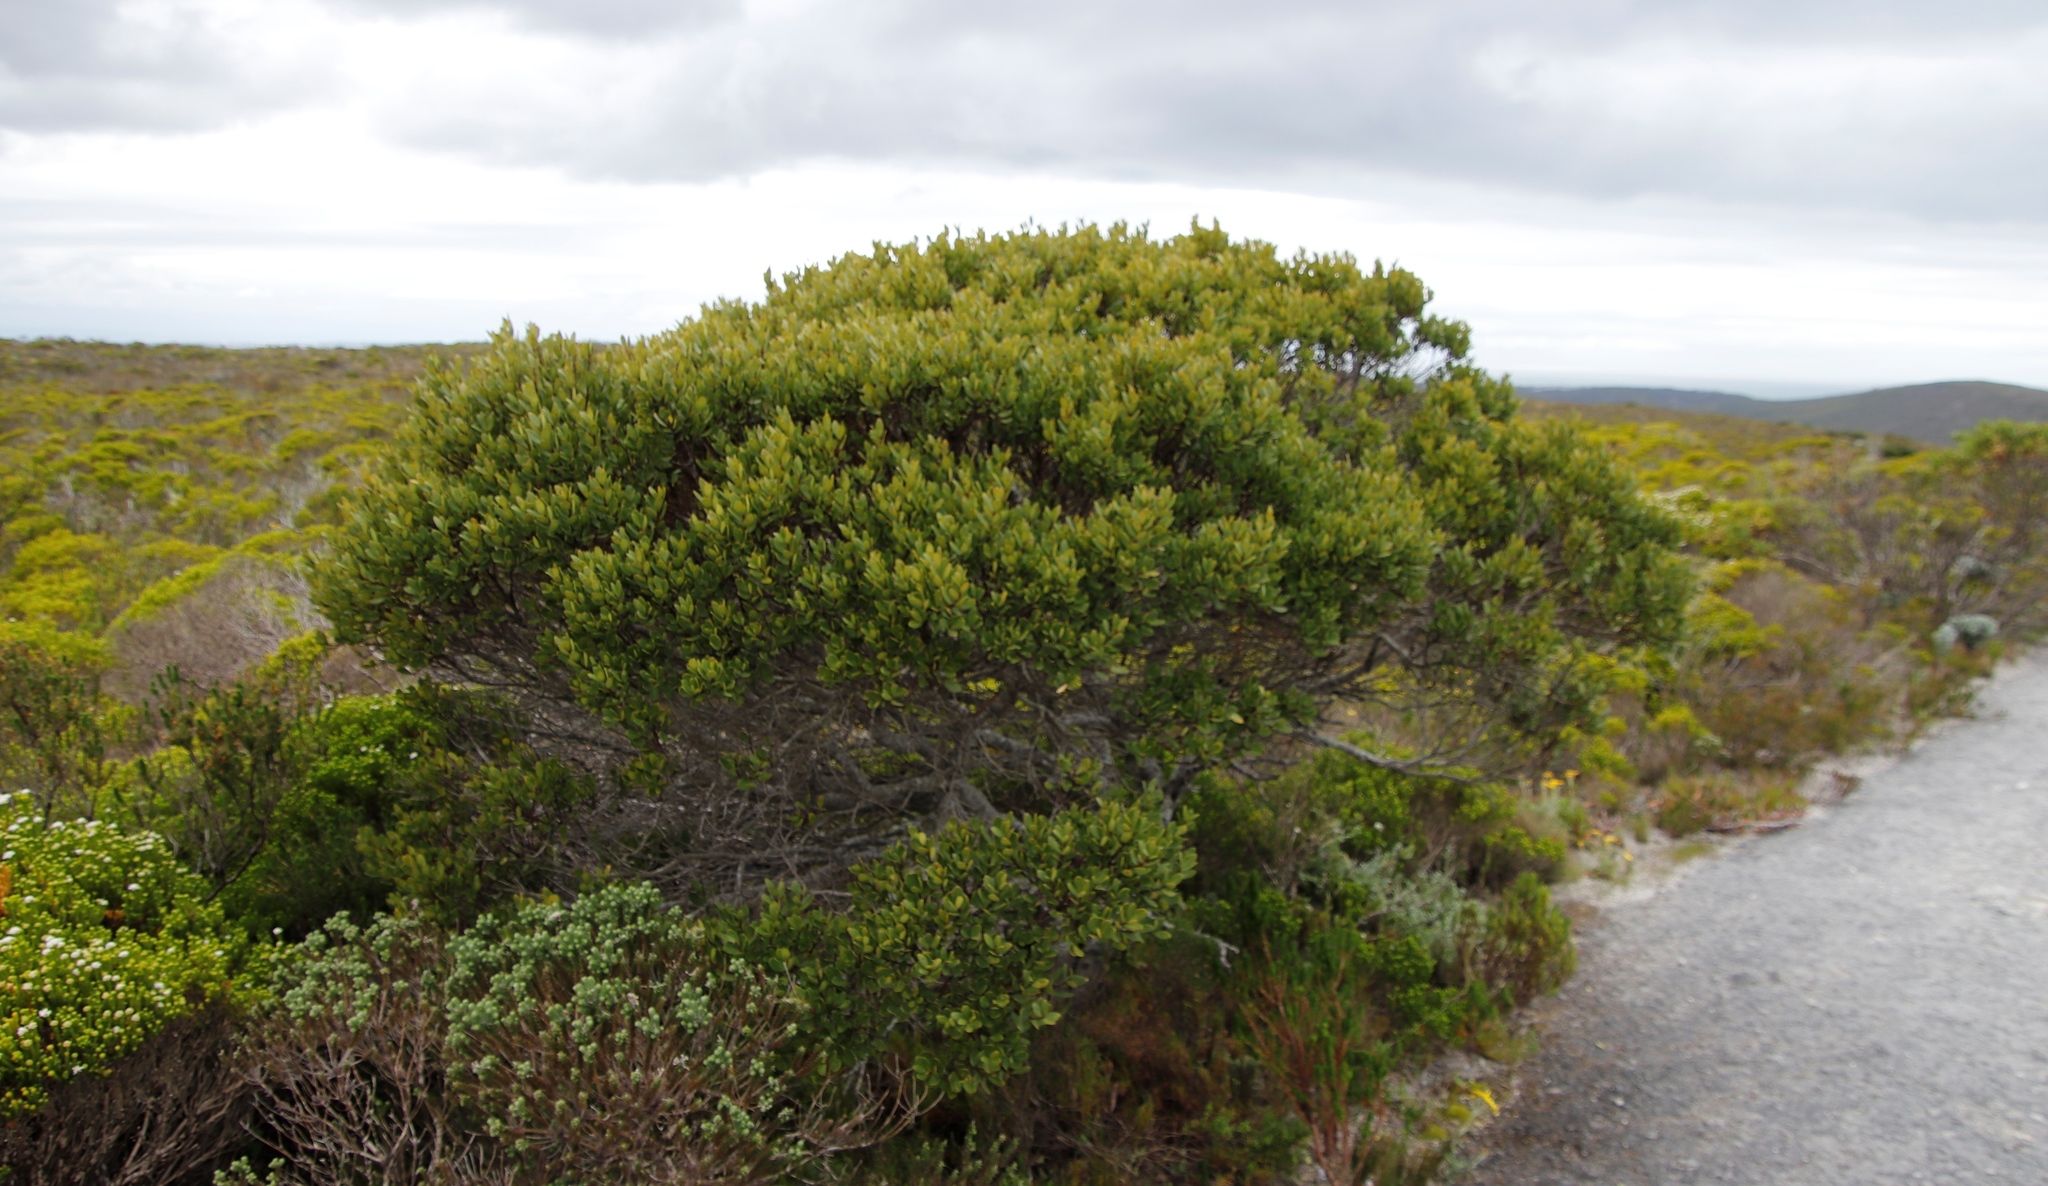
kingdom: Plantae
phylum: Tracheophyta
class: Magnoliopsida
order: Ericales
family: Ebenaceae
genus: Euclea
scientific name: Euclea racemosa
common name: Dune guarri
